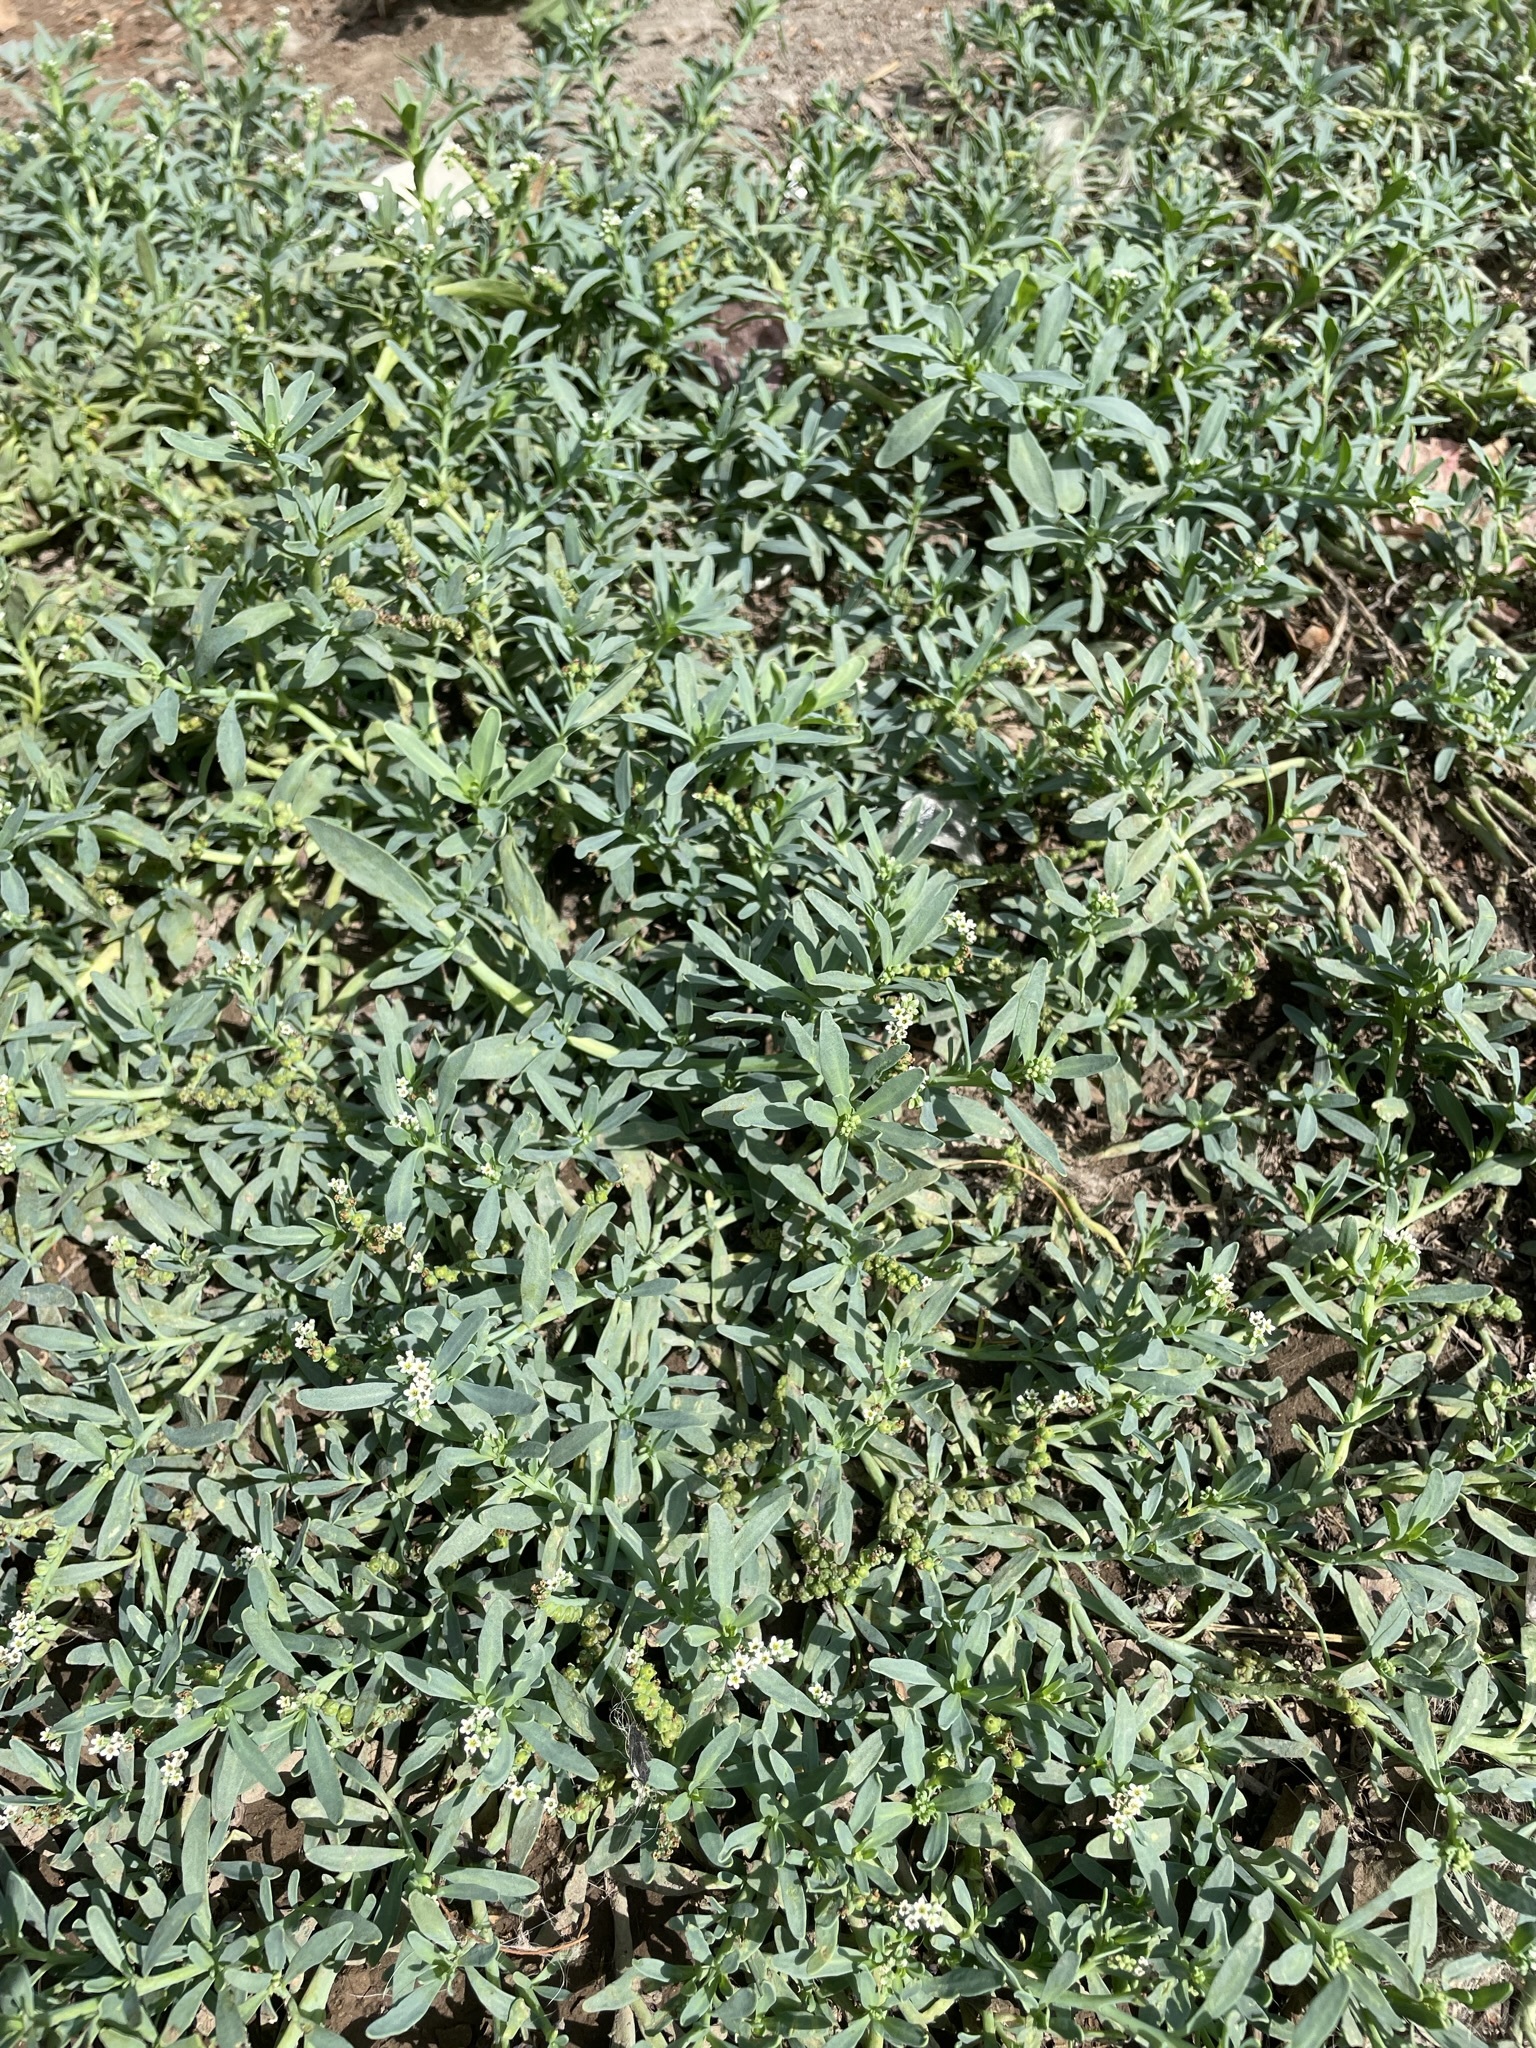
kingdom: Plantae
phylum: Tracheophyta
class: Magnoliopsida
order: Boraginales
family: Heliotropiaceae
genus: Heliotropium
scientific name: Heliotropium curassavicum
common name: Seaside heliotrope
